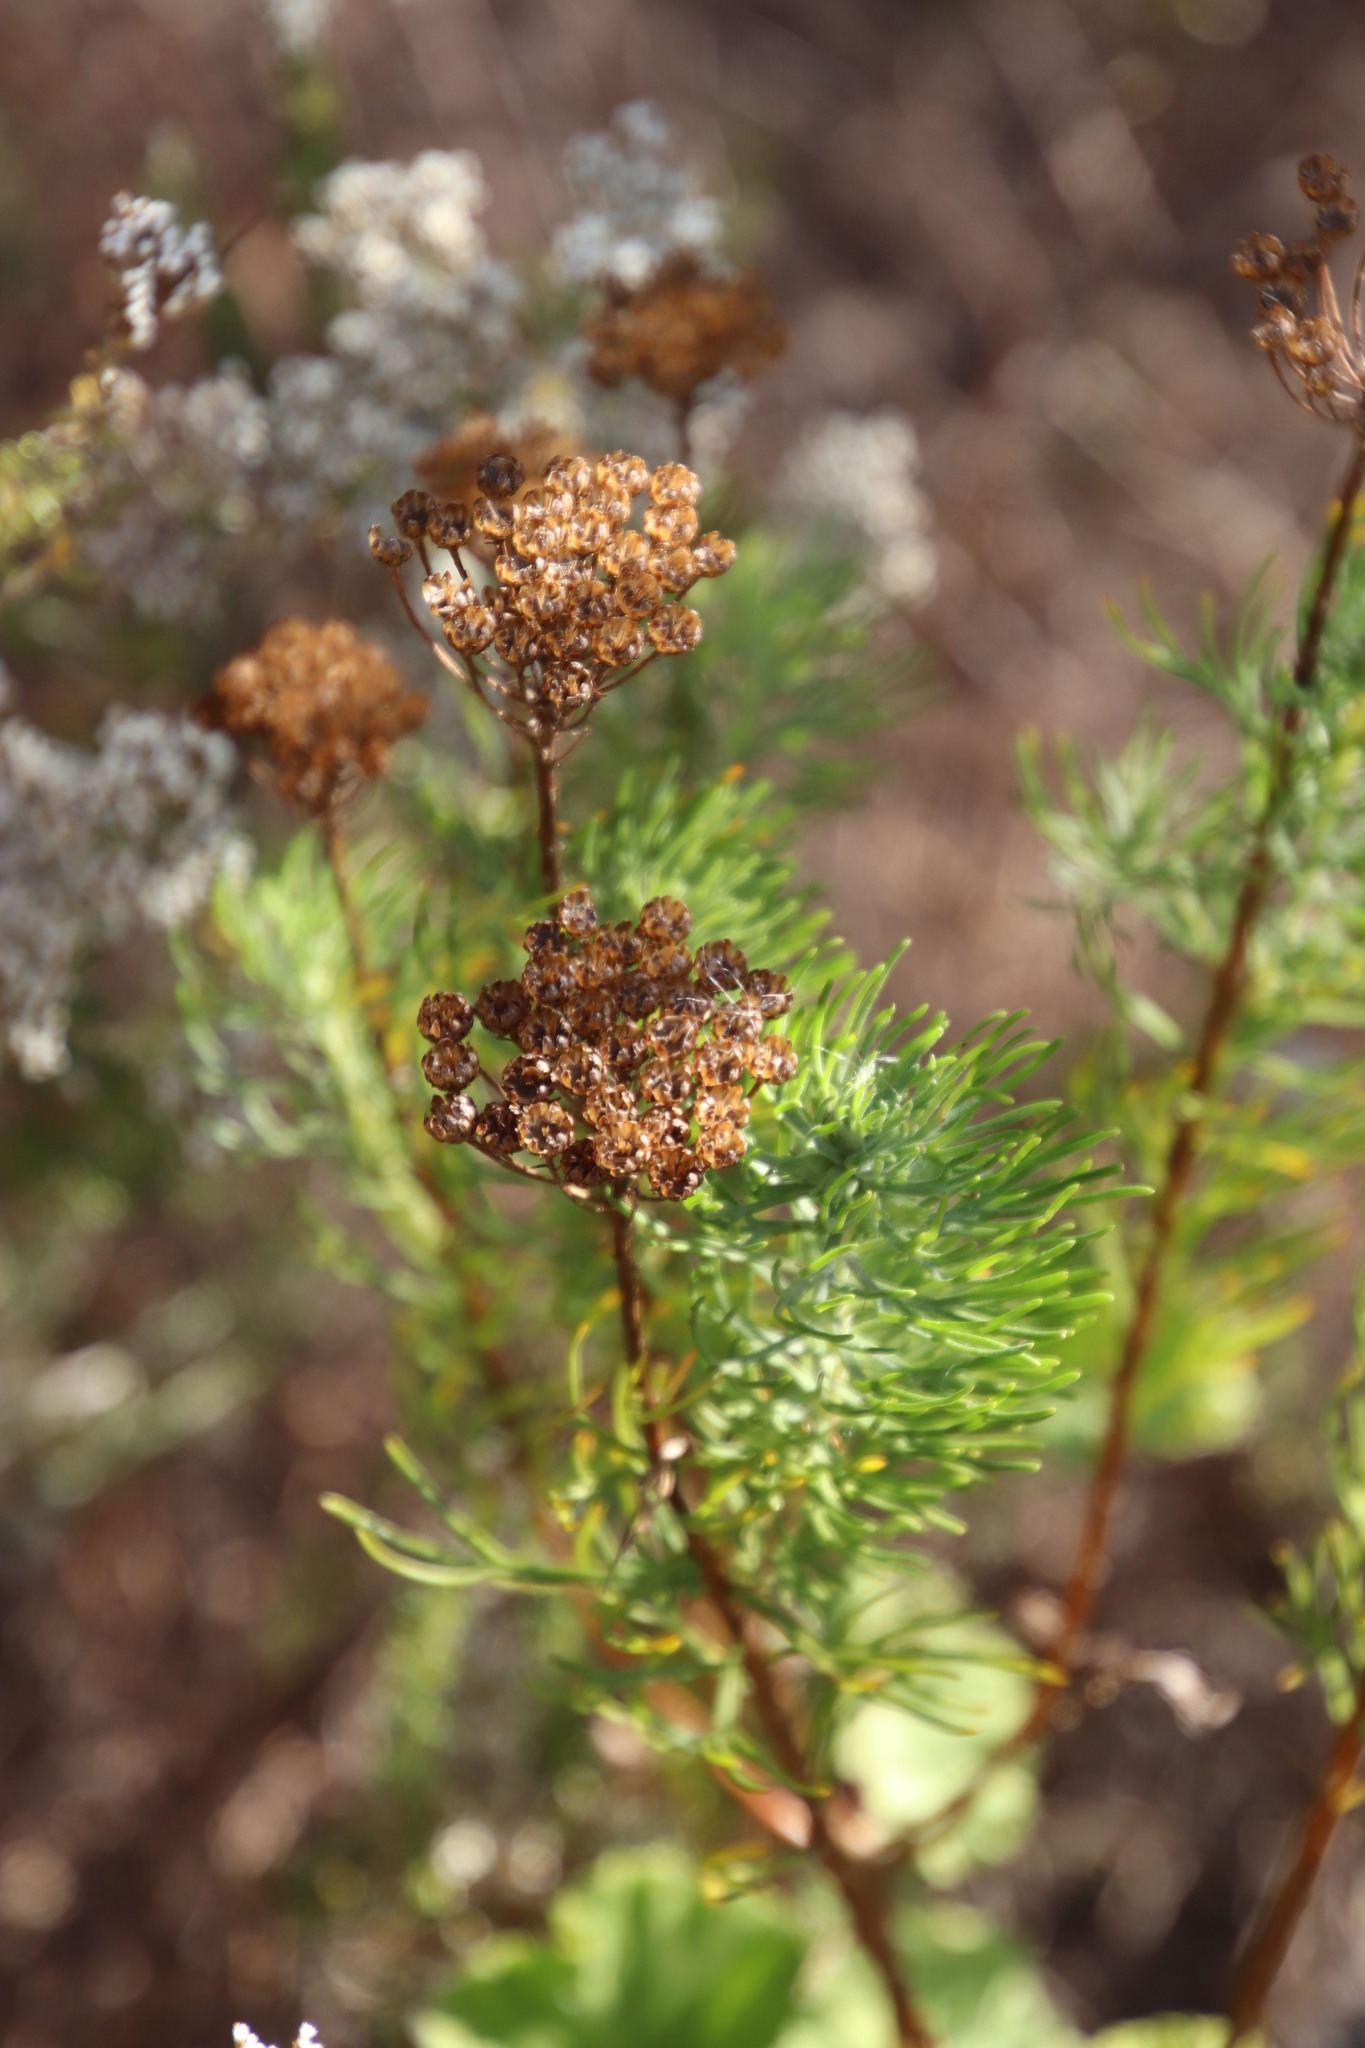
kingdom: Plantae
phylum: Tracheophyta
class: Magnoliopsida
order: Asterales
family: Asteraceae
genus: Athanasia
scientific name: Athanasia crithmifolia
